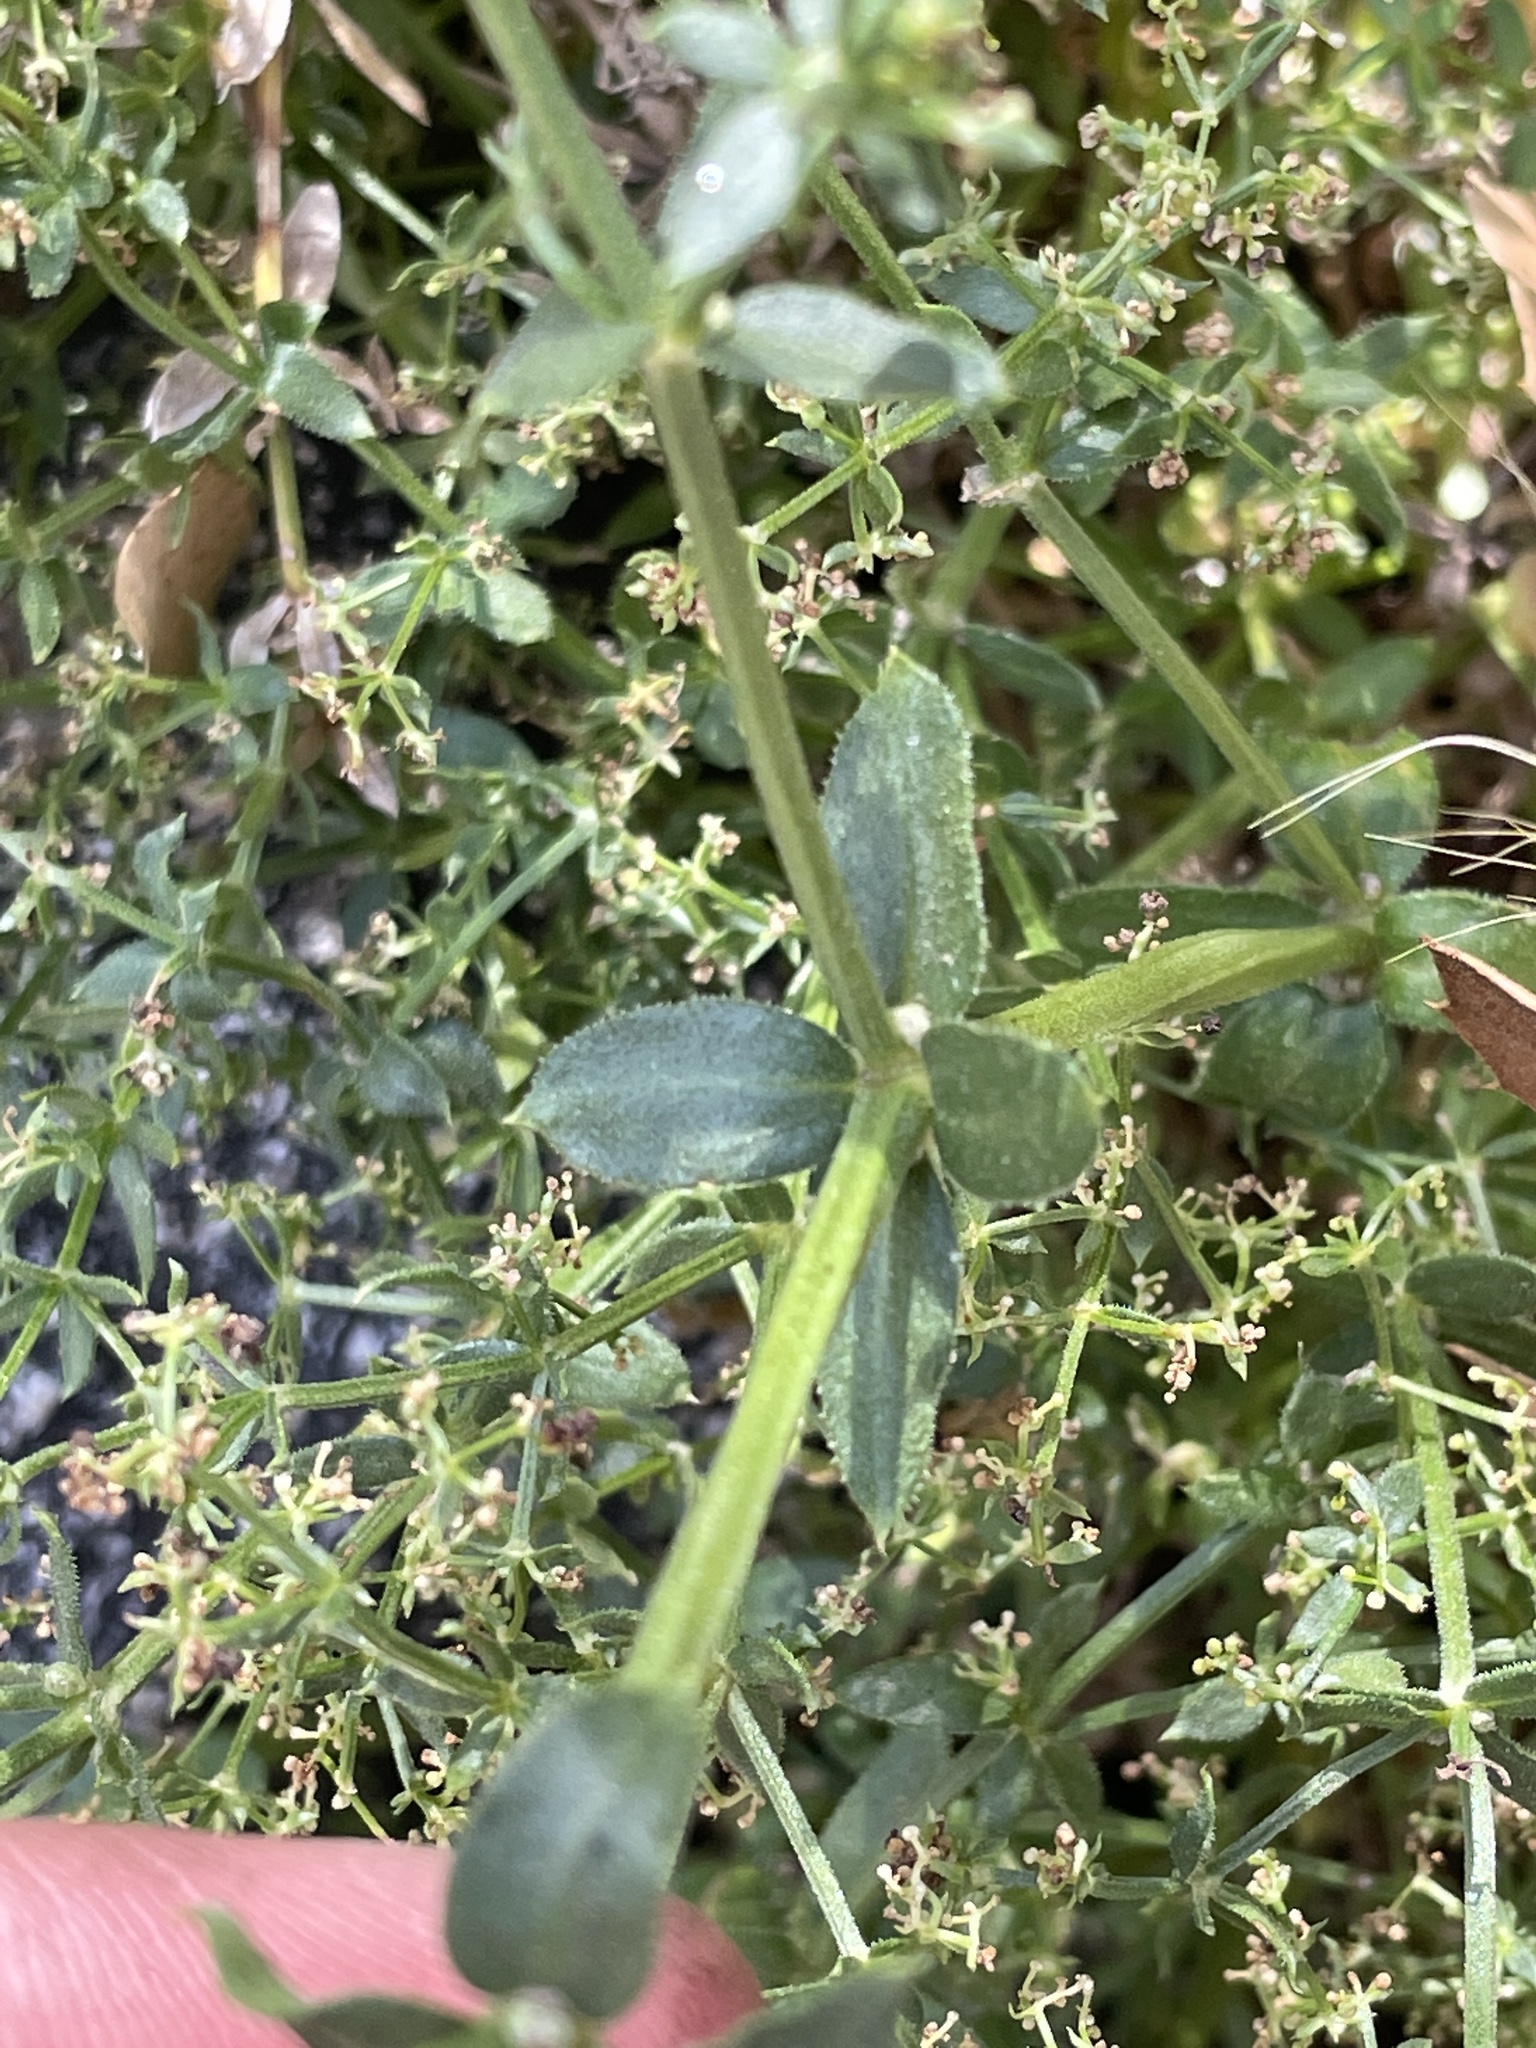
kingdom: Plantae
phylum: Tracheophyta
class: Magnoliopsida
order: Gentianales
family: Rubiaceae
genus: Galium
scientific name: Galium stellatum
